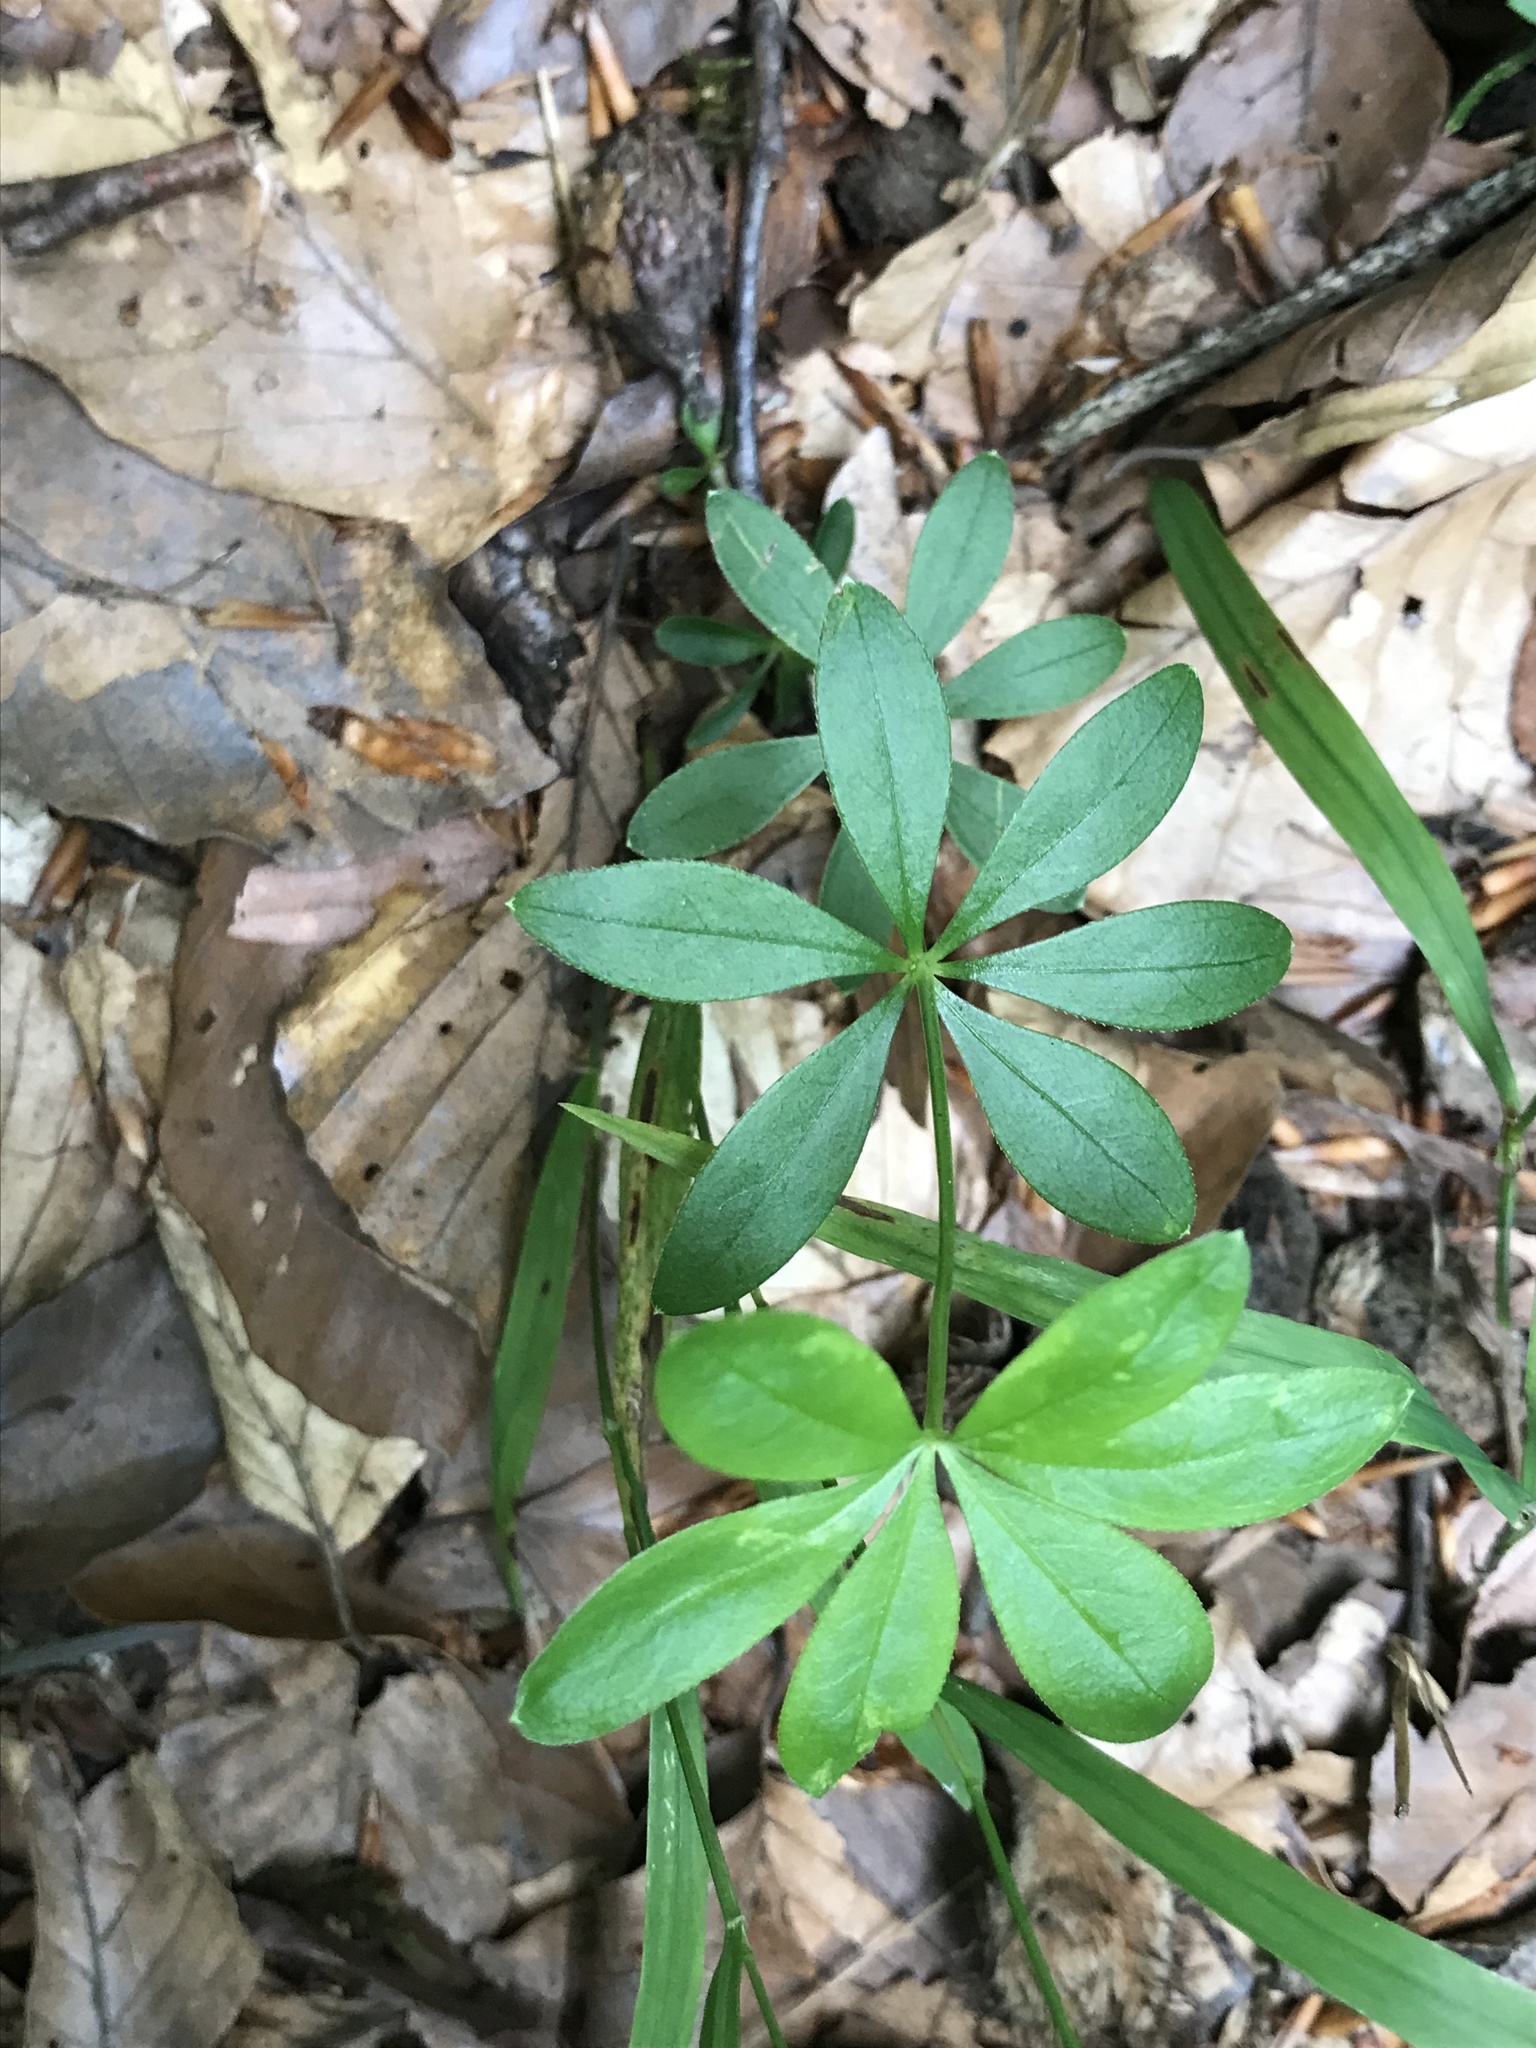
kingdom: Plantae
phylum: Tracheophyta
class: Magnoliopsida
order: Gentianales
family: Rubiaceae
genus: Galium
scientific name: Galium odoratum
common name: Sweet woodruff
